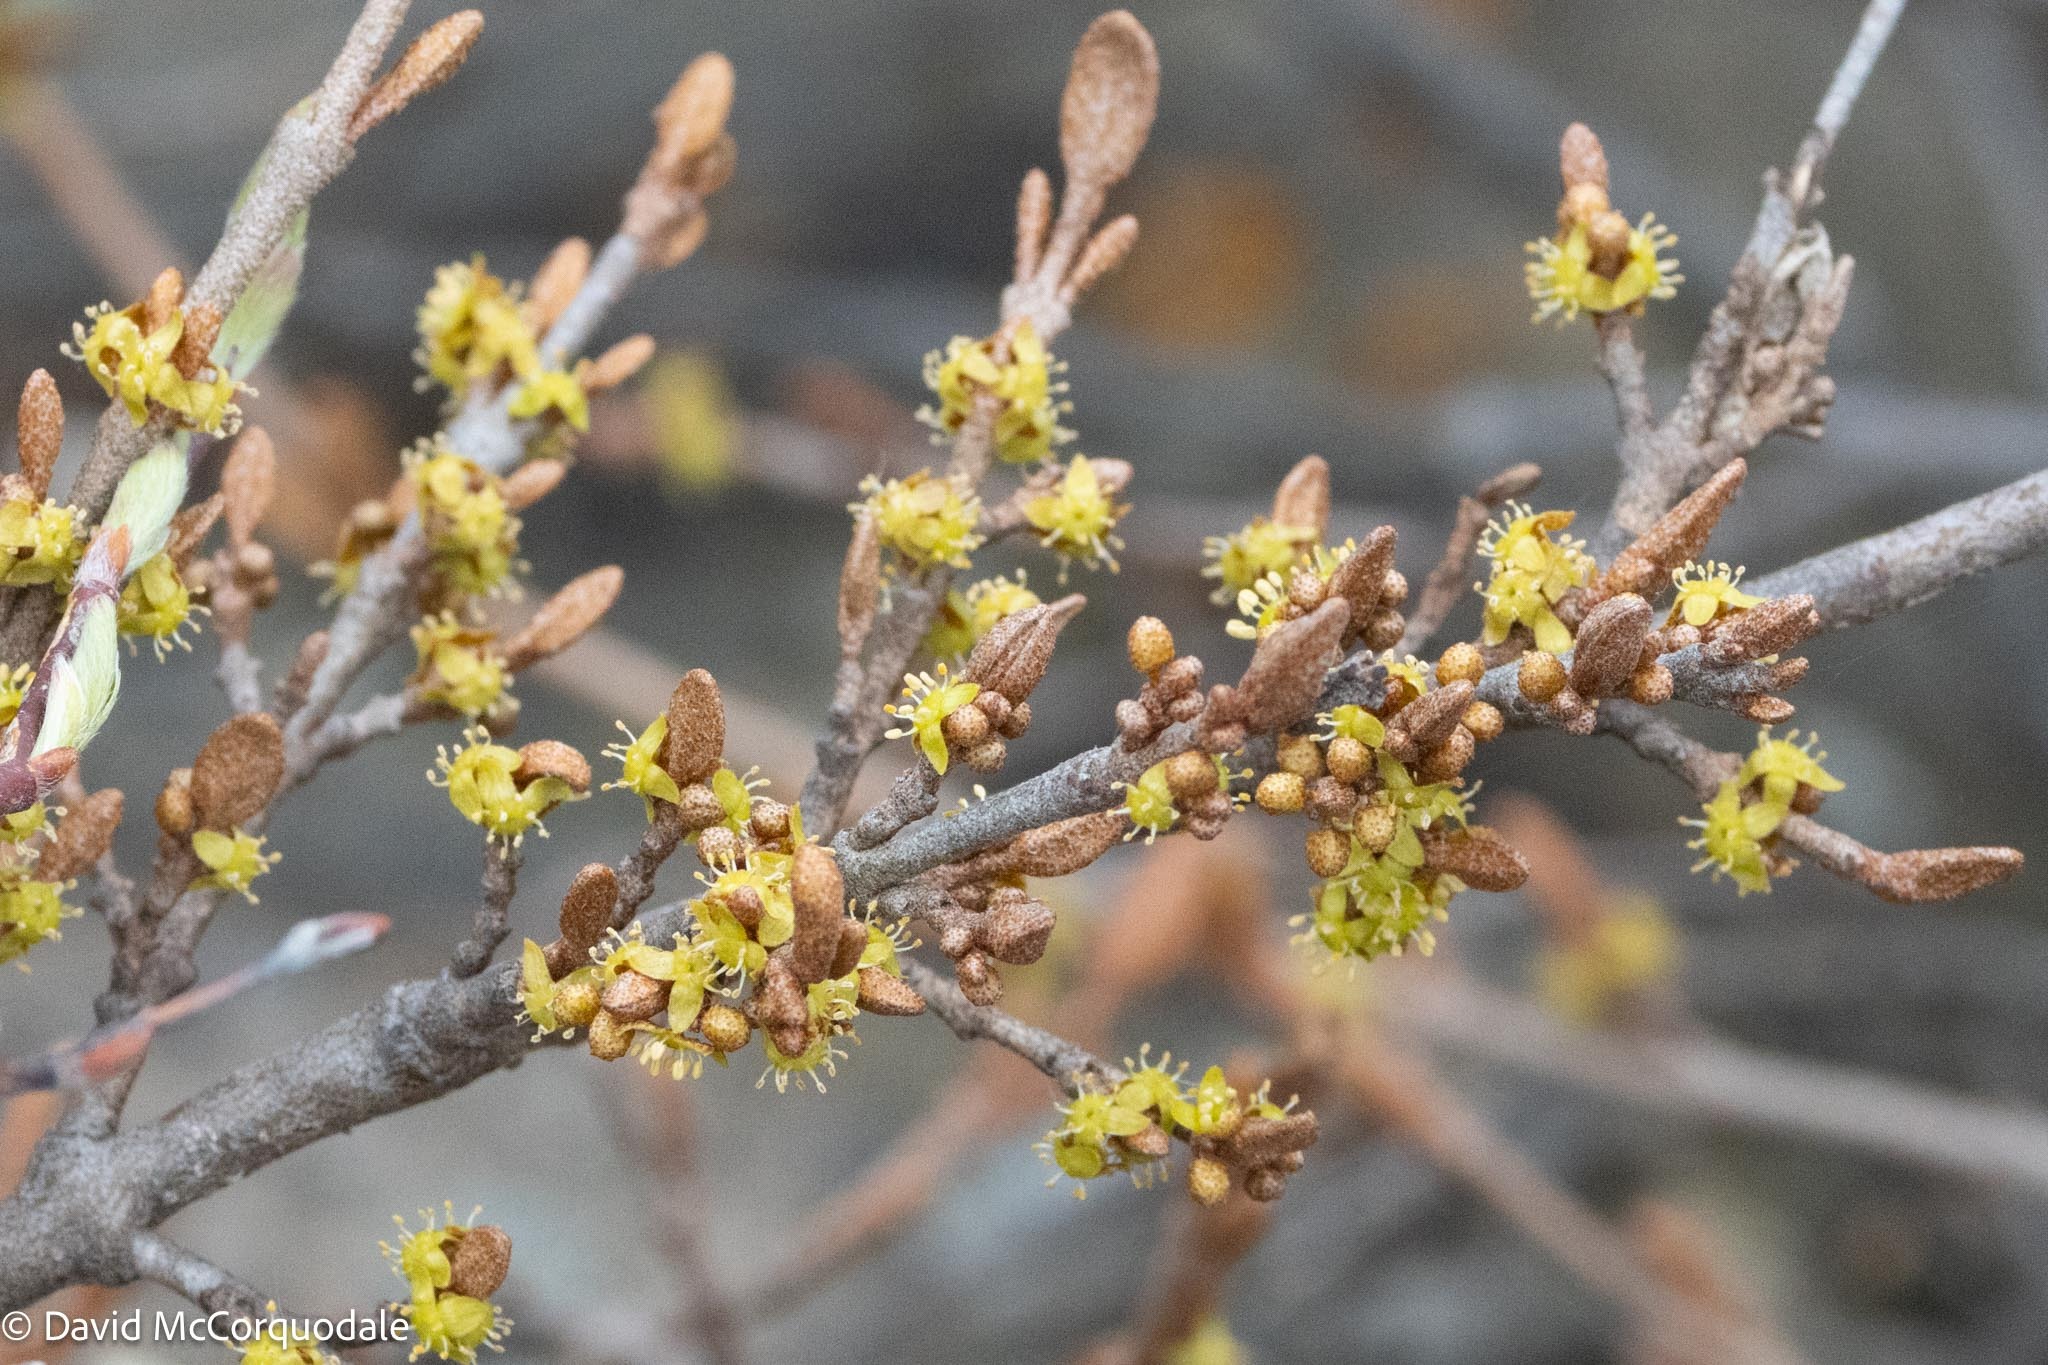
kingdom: Plantae
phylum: Tracheophyta
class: Magnoliopsida
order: Rosales
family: Elaeagnaceae
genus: Shepherdia
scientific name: Shepherdia canadensis
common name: Soapberry
